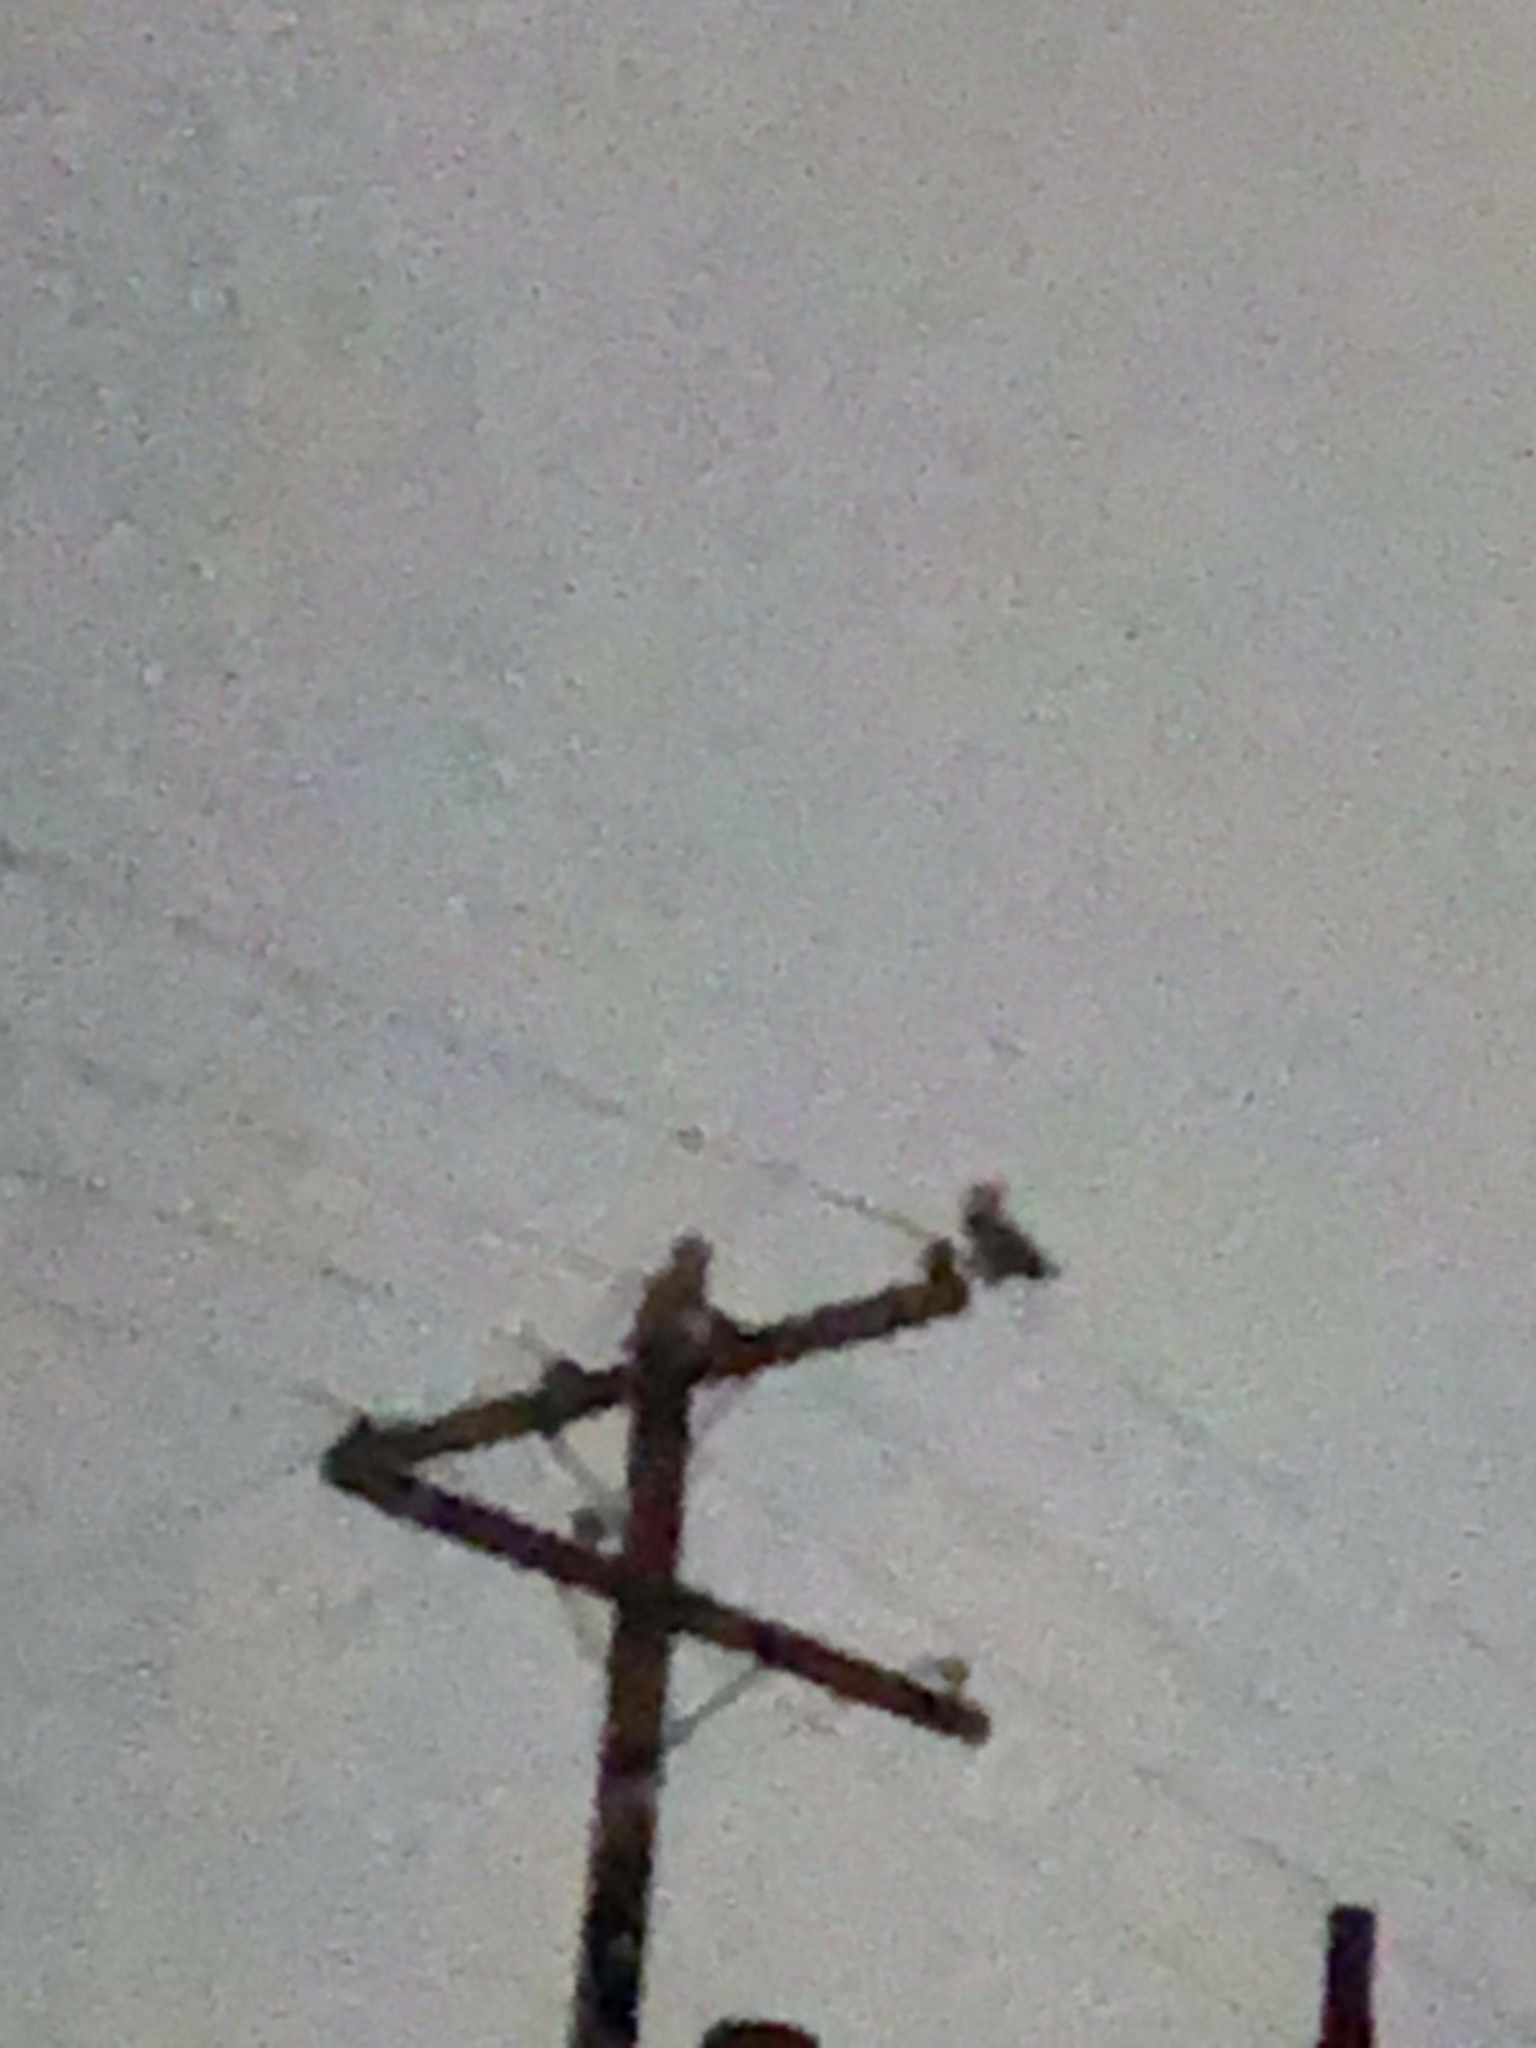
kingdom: Animalia
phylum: Chordata
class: Aves
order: Strigiformes
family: Strigidae
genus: Bubo
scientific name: Bubo virginianus
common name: Great horned owl
